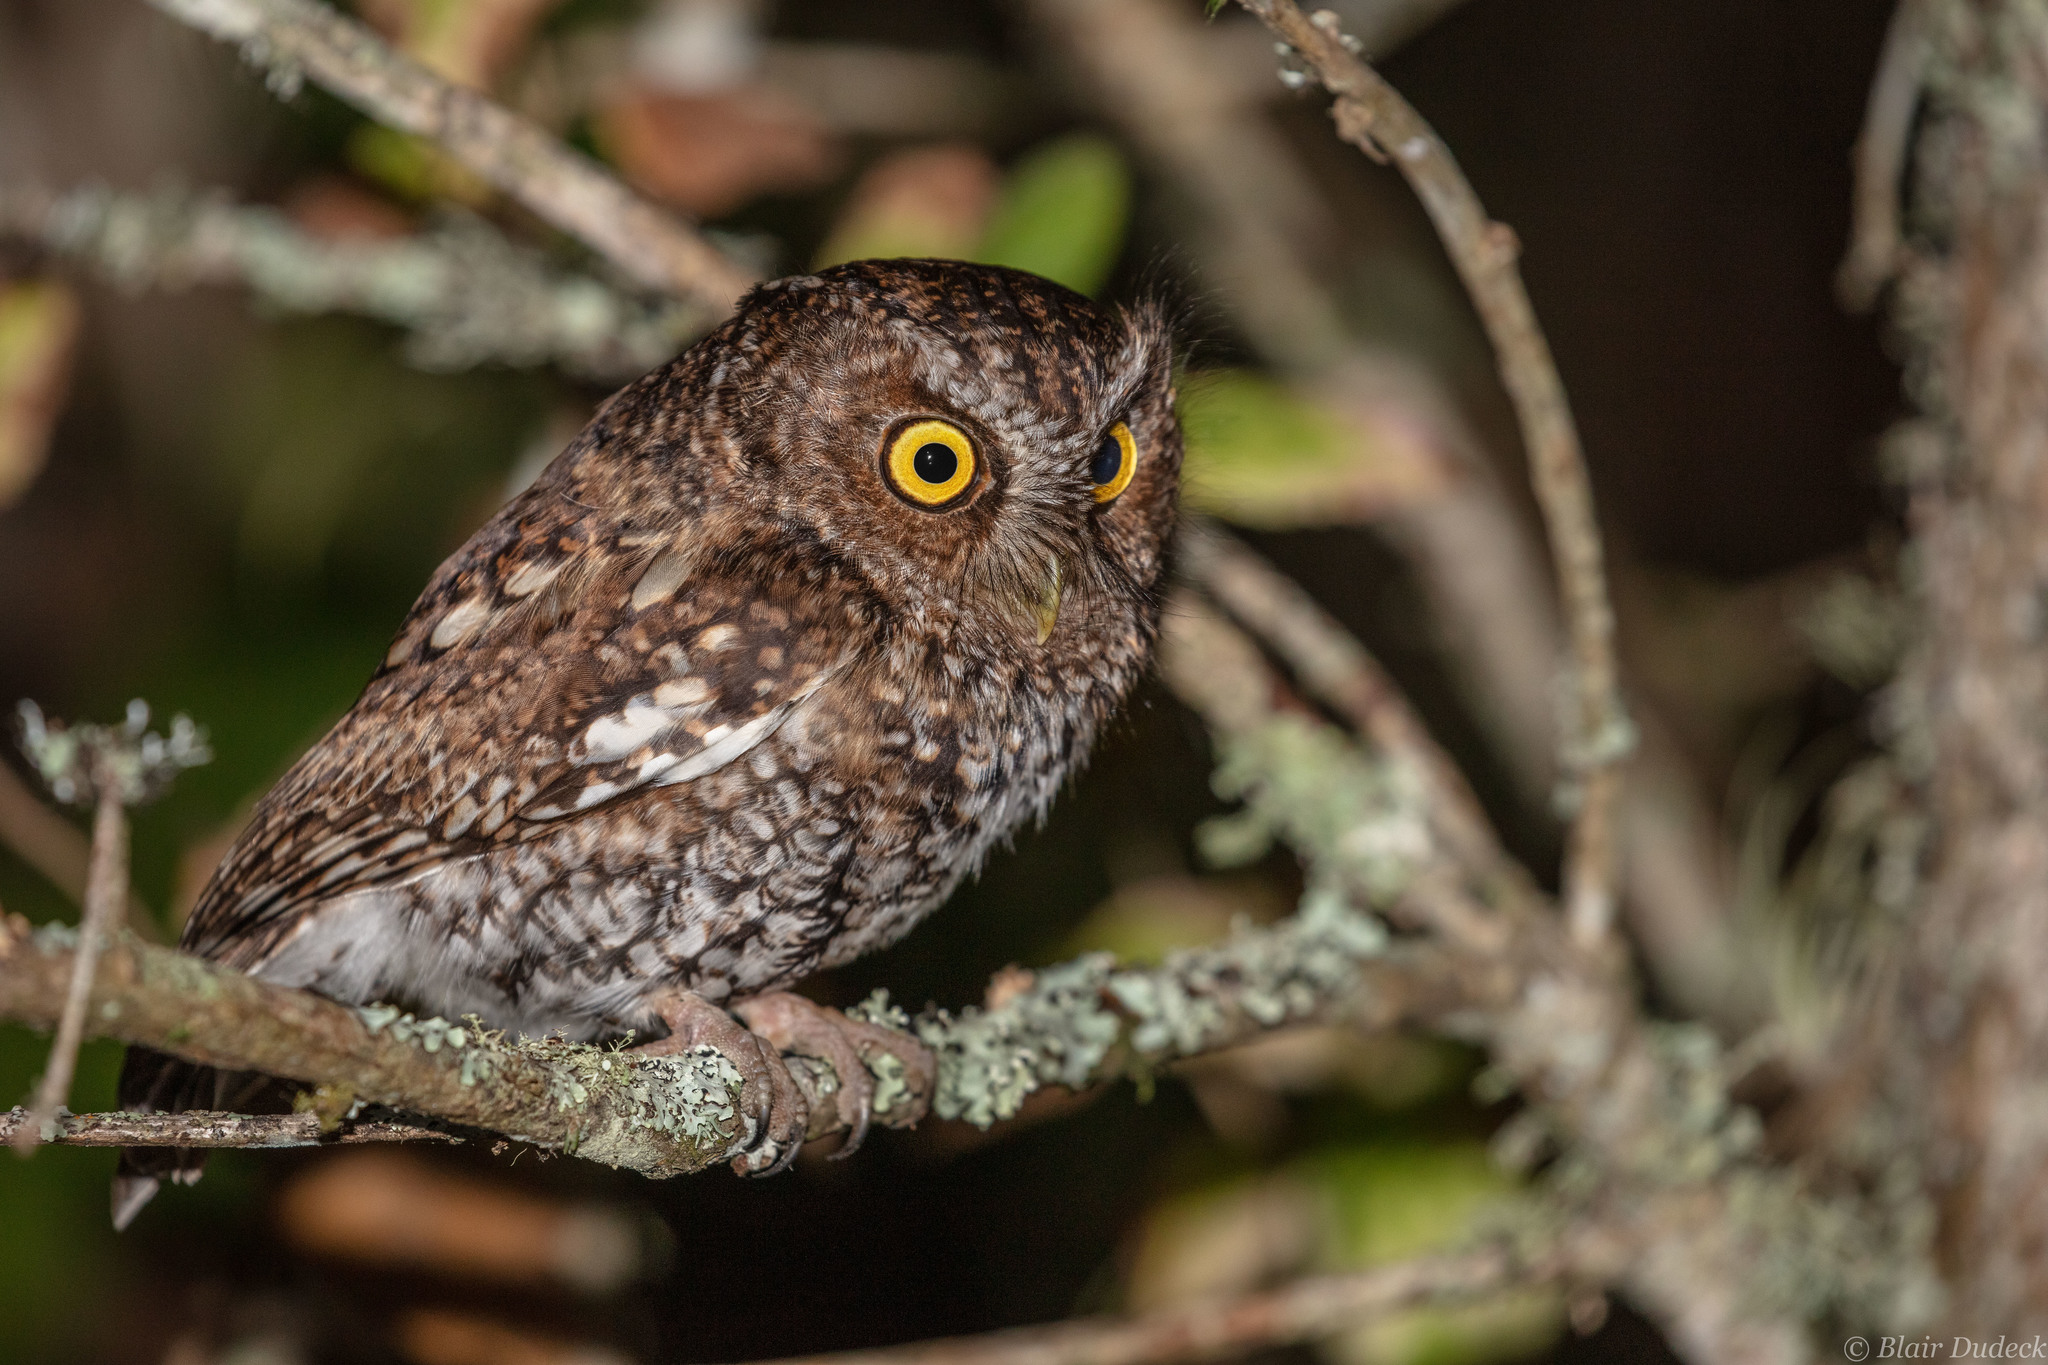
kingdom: Animalia
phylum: Chordata
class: Aves
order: Strigiformes
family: Strigidae
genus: Megascops
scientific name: Megascops barbarus
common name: Bearded screech-owl
